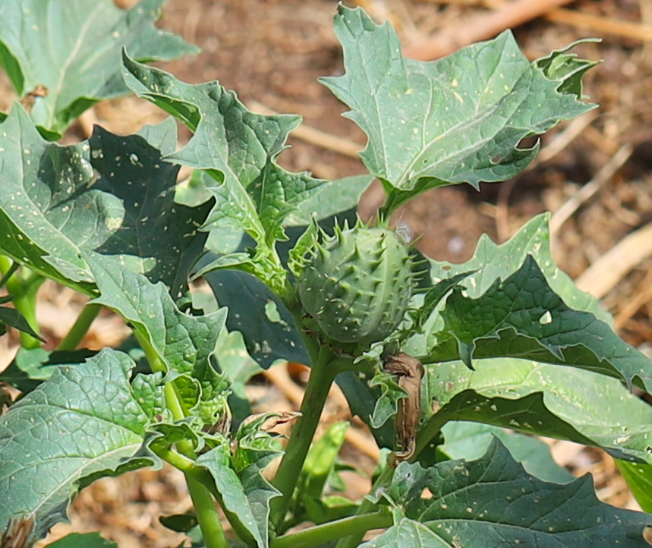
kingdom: Plantae
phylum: Tracheophyta
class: Magnoliopsida
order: Solanales
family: Solanaceae
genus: Datura
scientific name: Datura stramonium
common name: Thorn-apple
